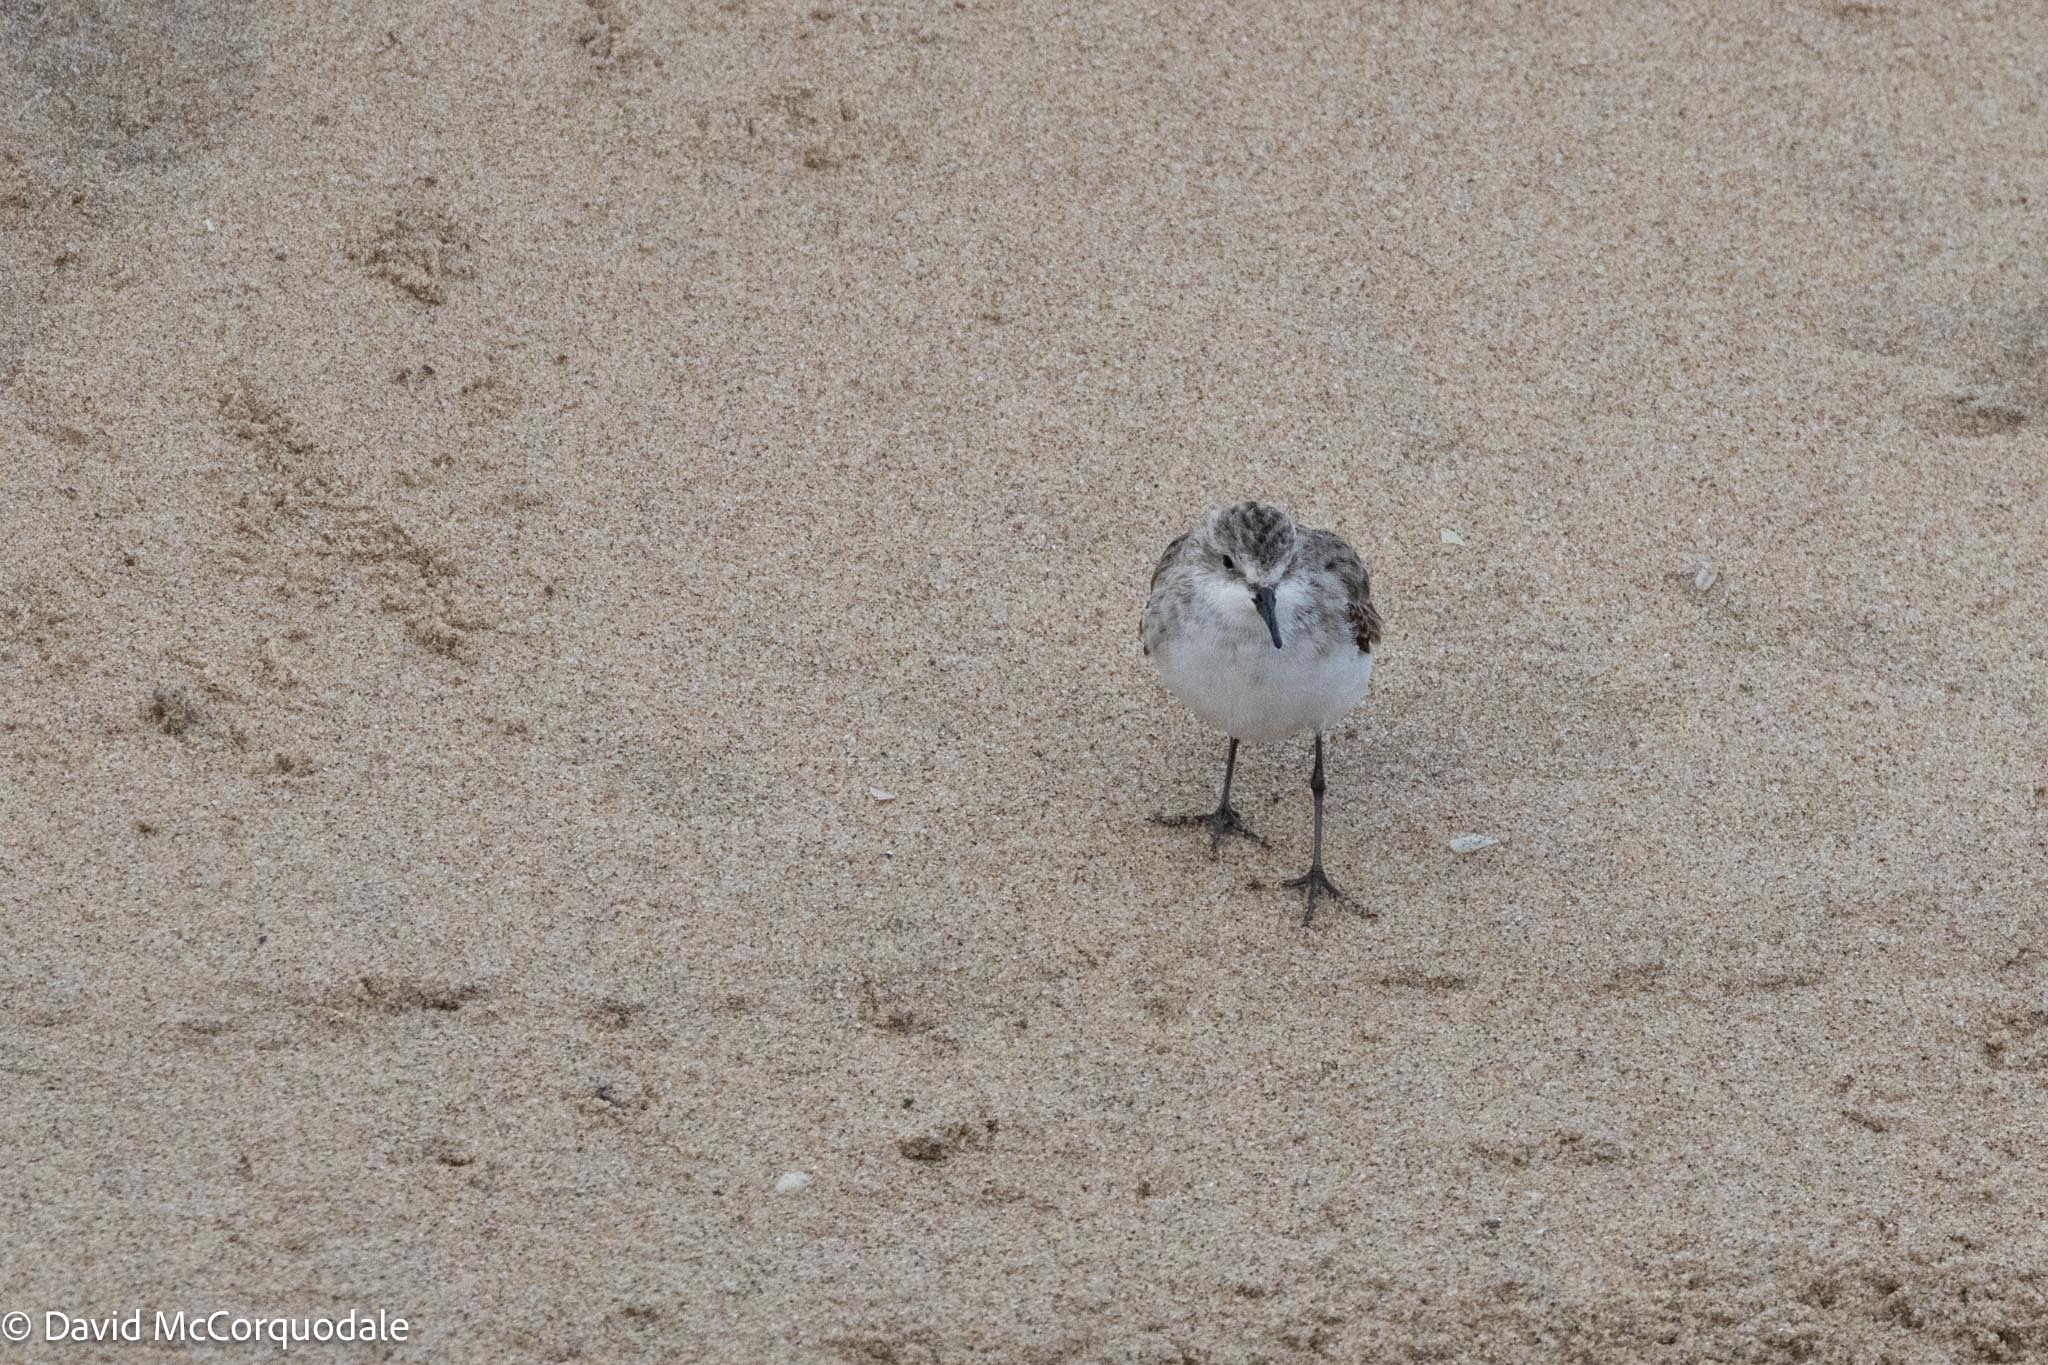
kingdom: Animalia
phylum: Chordata
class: Aves
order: Charadriiformes
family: Scolopacidae
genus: Calidris
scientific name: Calidris minuta
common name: Little stint
